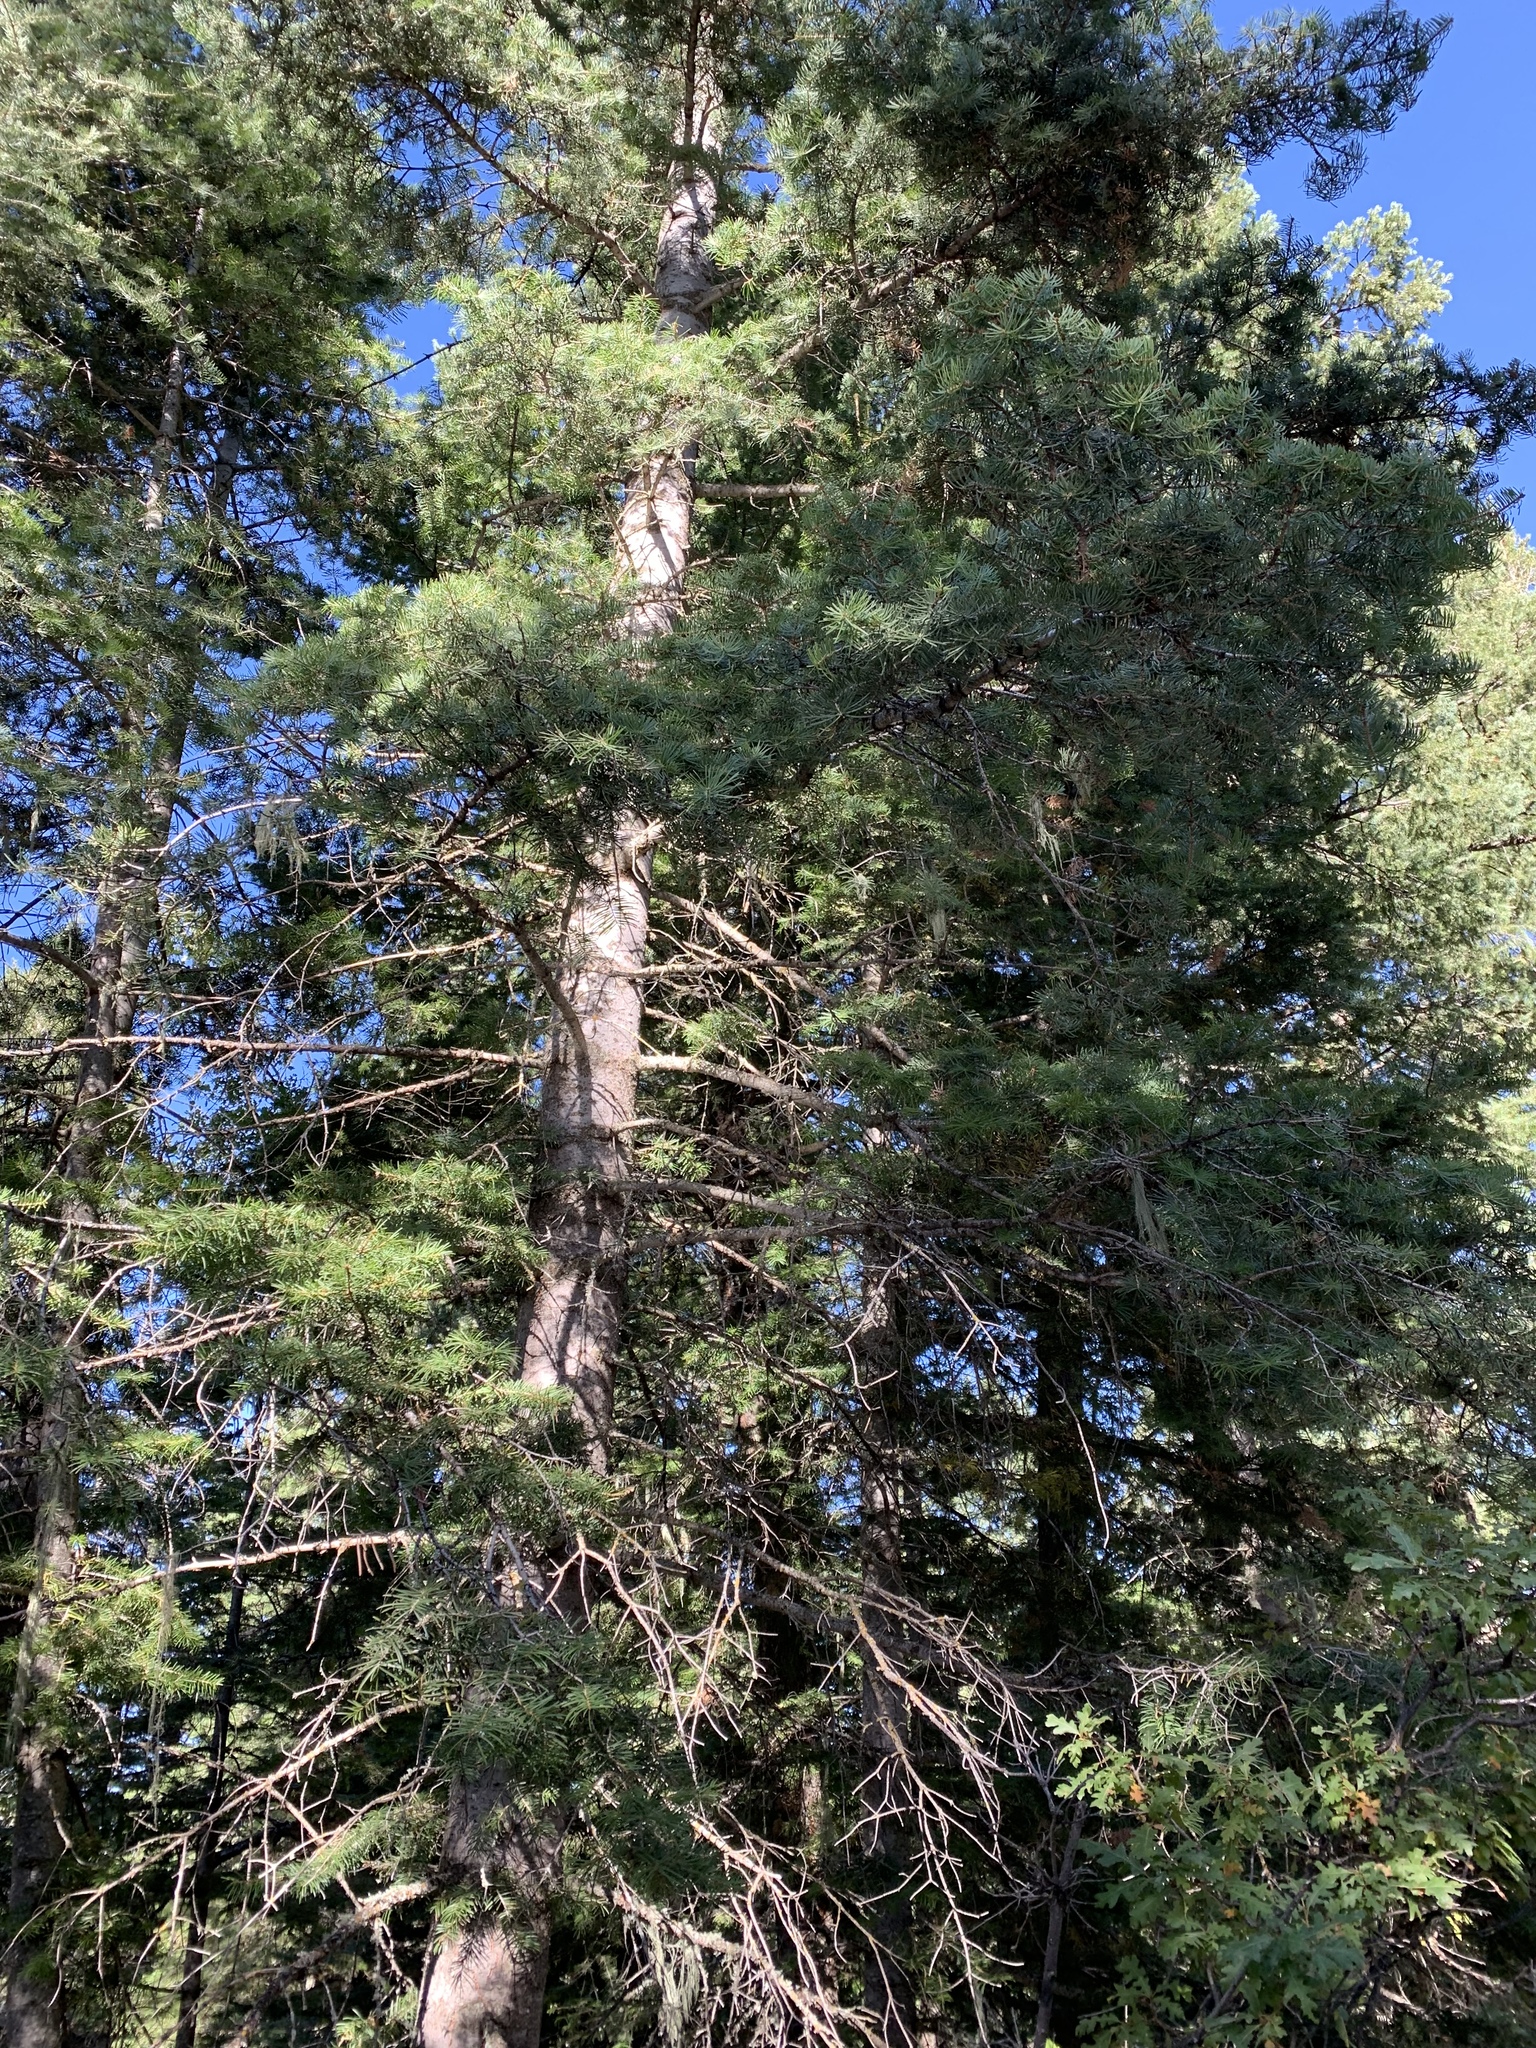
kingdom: Plantae
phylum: Tracheophyta
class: Pinopsida
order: Pinales
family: Pinaceae
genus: Abies
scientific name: Abies concolor
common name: Colorado fir
